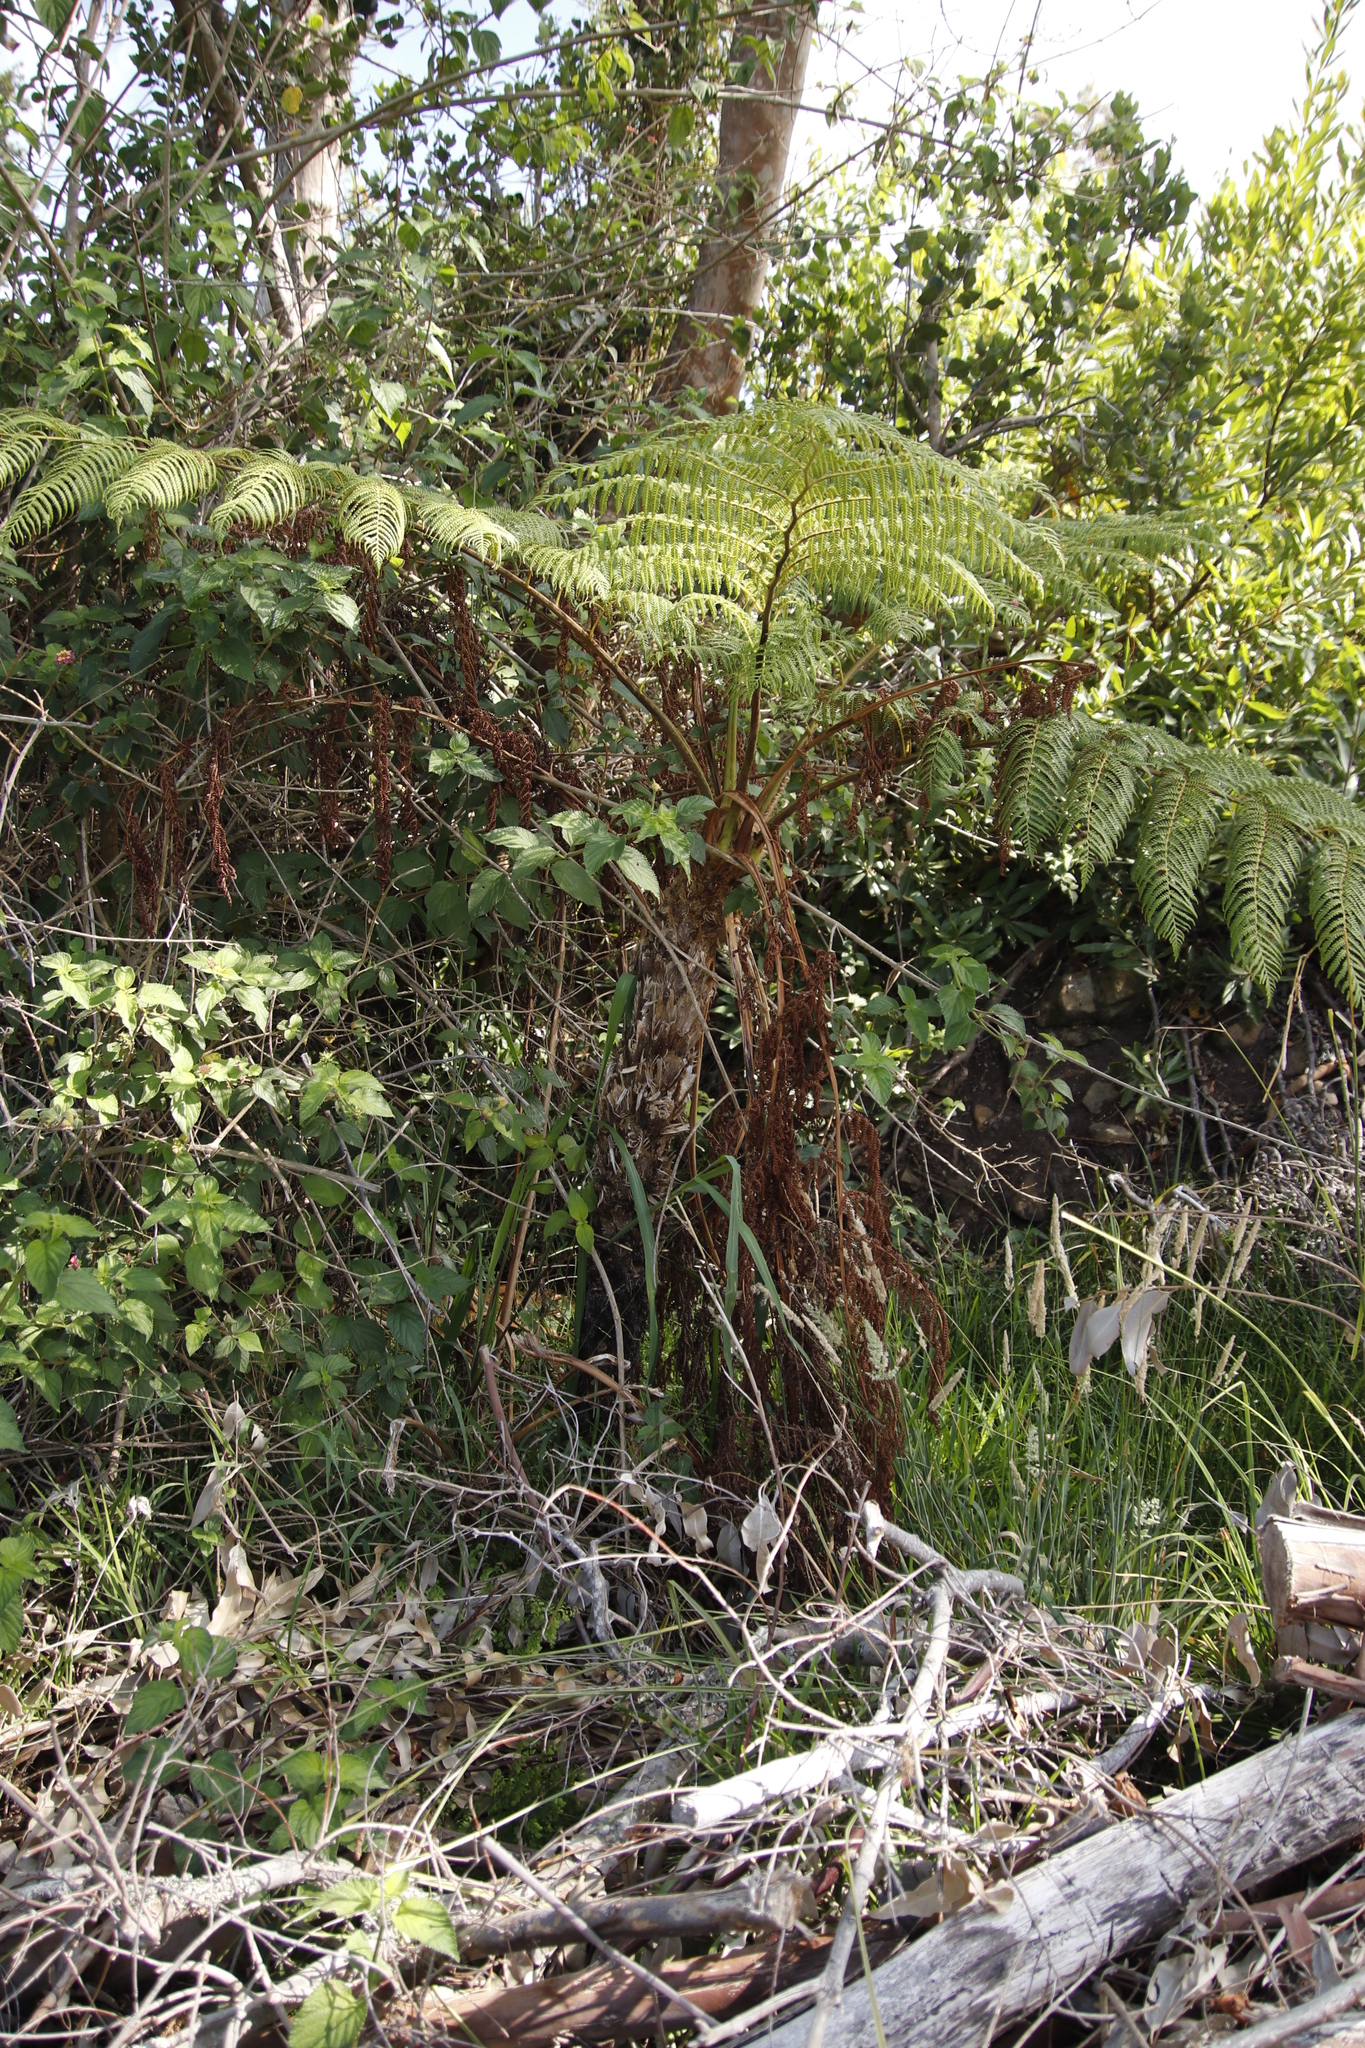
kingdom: Plantae
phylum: Tracheophyta
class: Polypodiopsida
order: Cyatheales
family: Cyatheaceae
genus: Sphaeropteris
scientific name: Sphaeropteris cooperi
